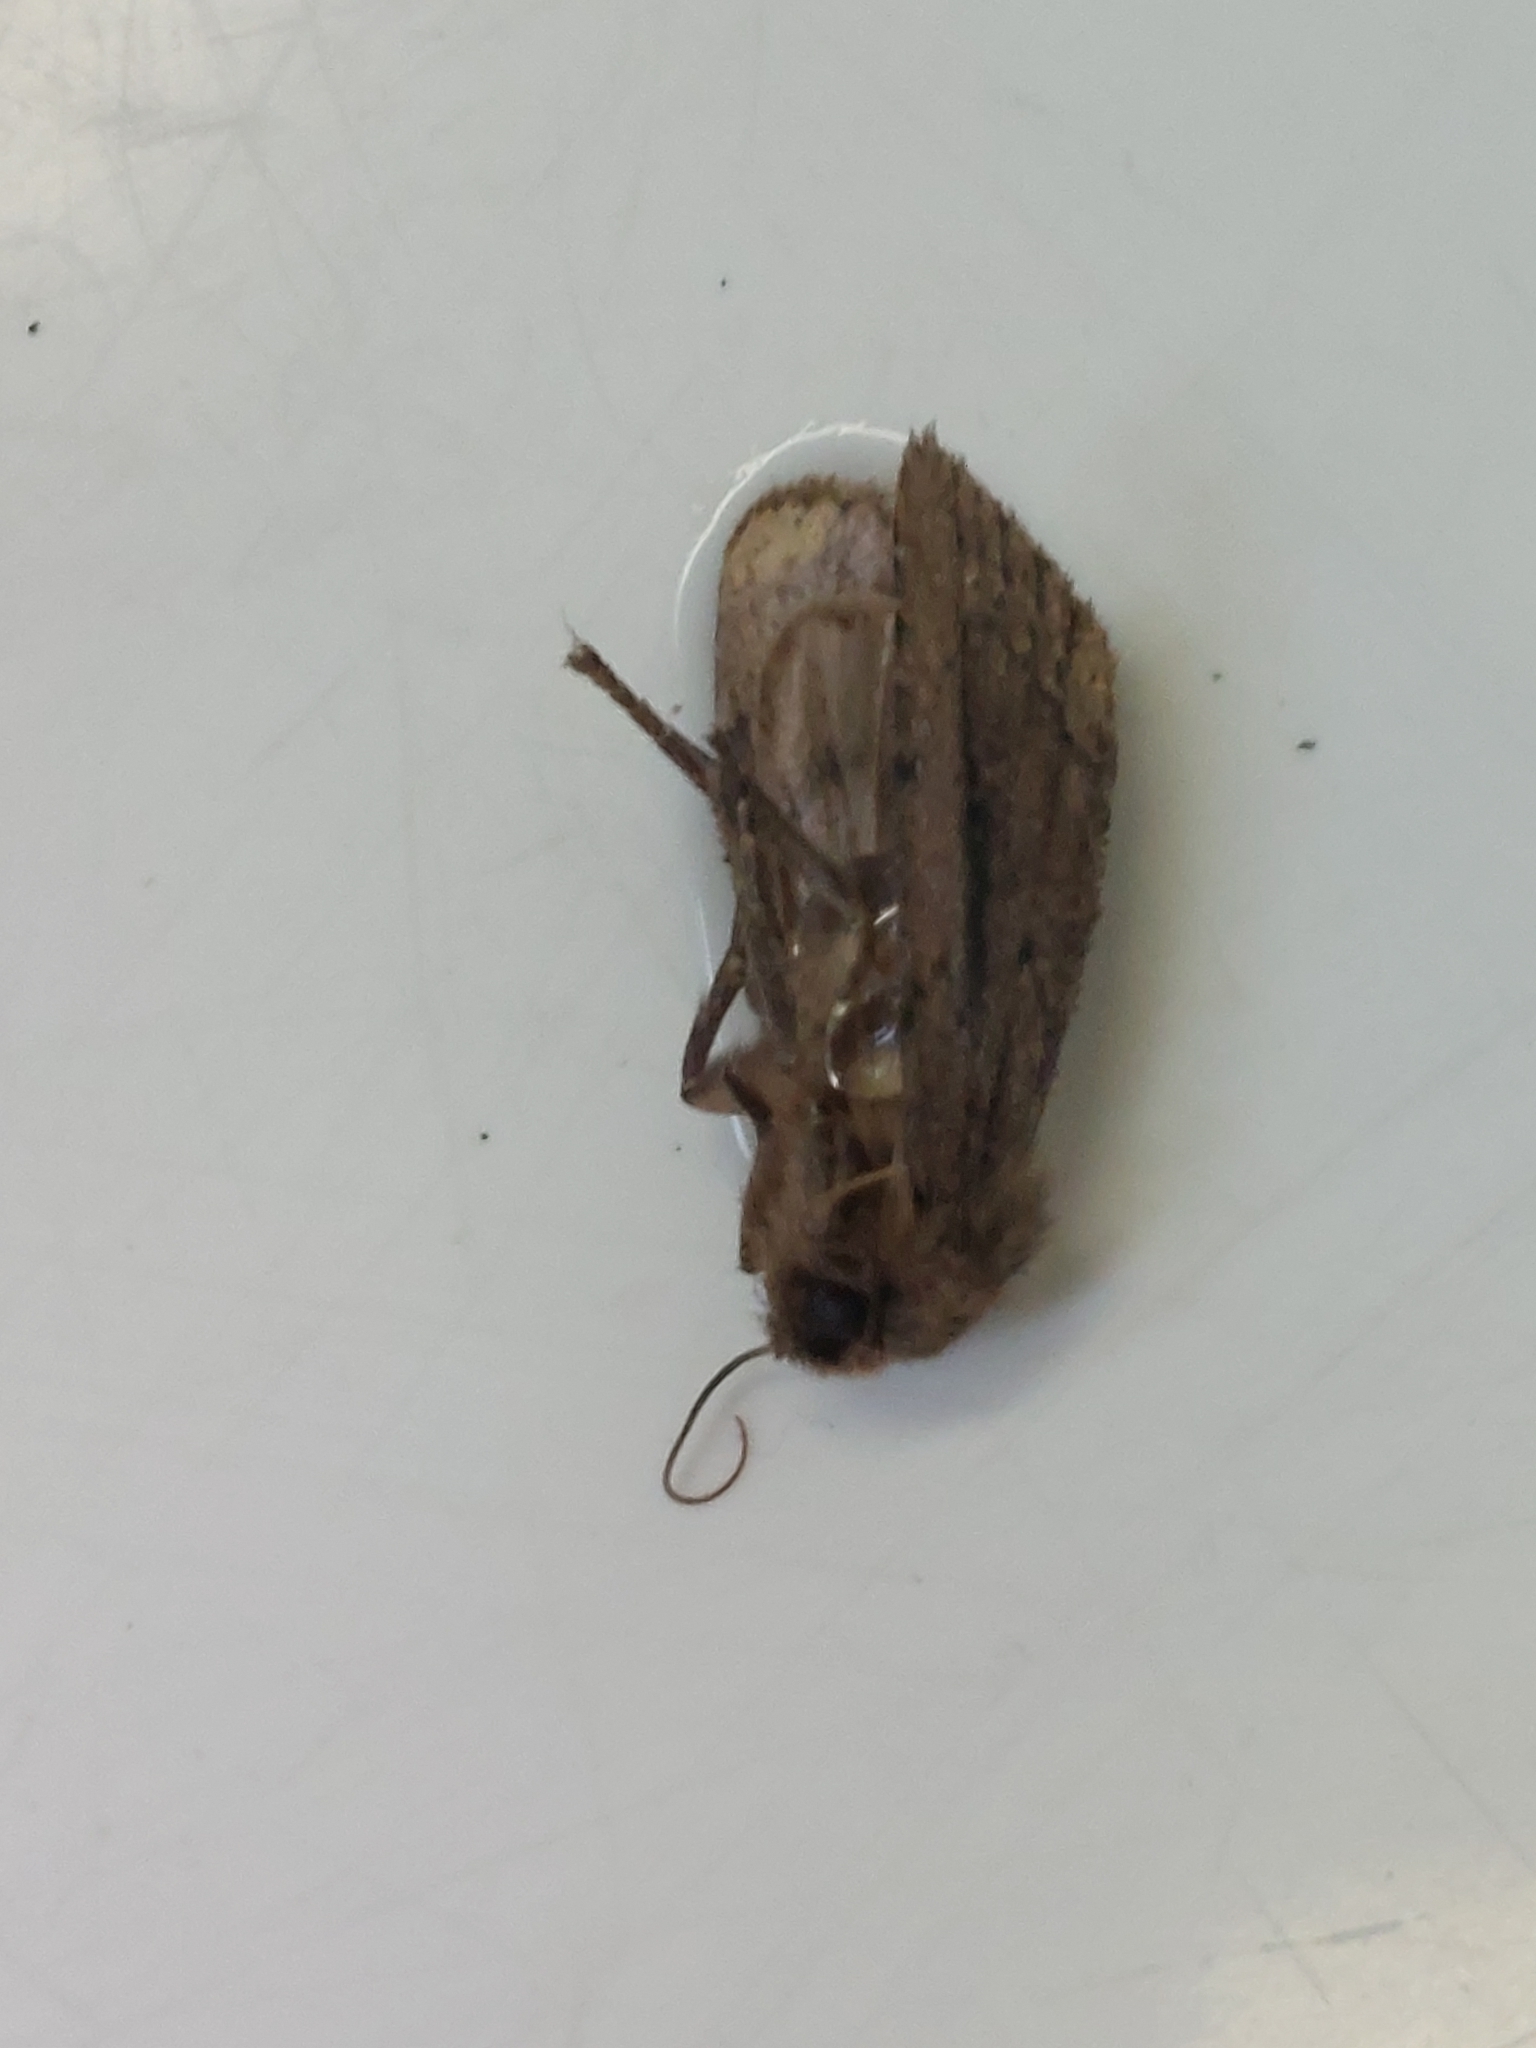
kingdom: Animalia
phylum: Arthropoda
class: Insecta
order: Lepidoptera
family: Noctuidae
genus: Ufeus
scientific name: Ufeus satyricus
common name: Brown satyr moth
